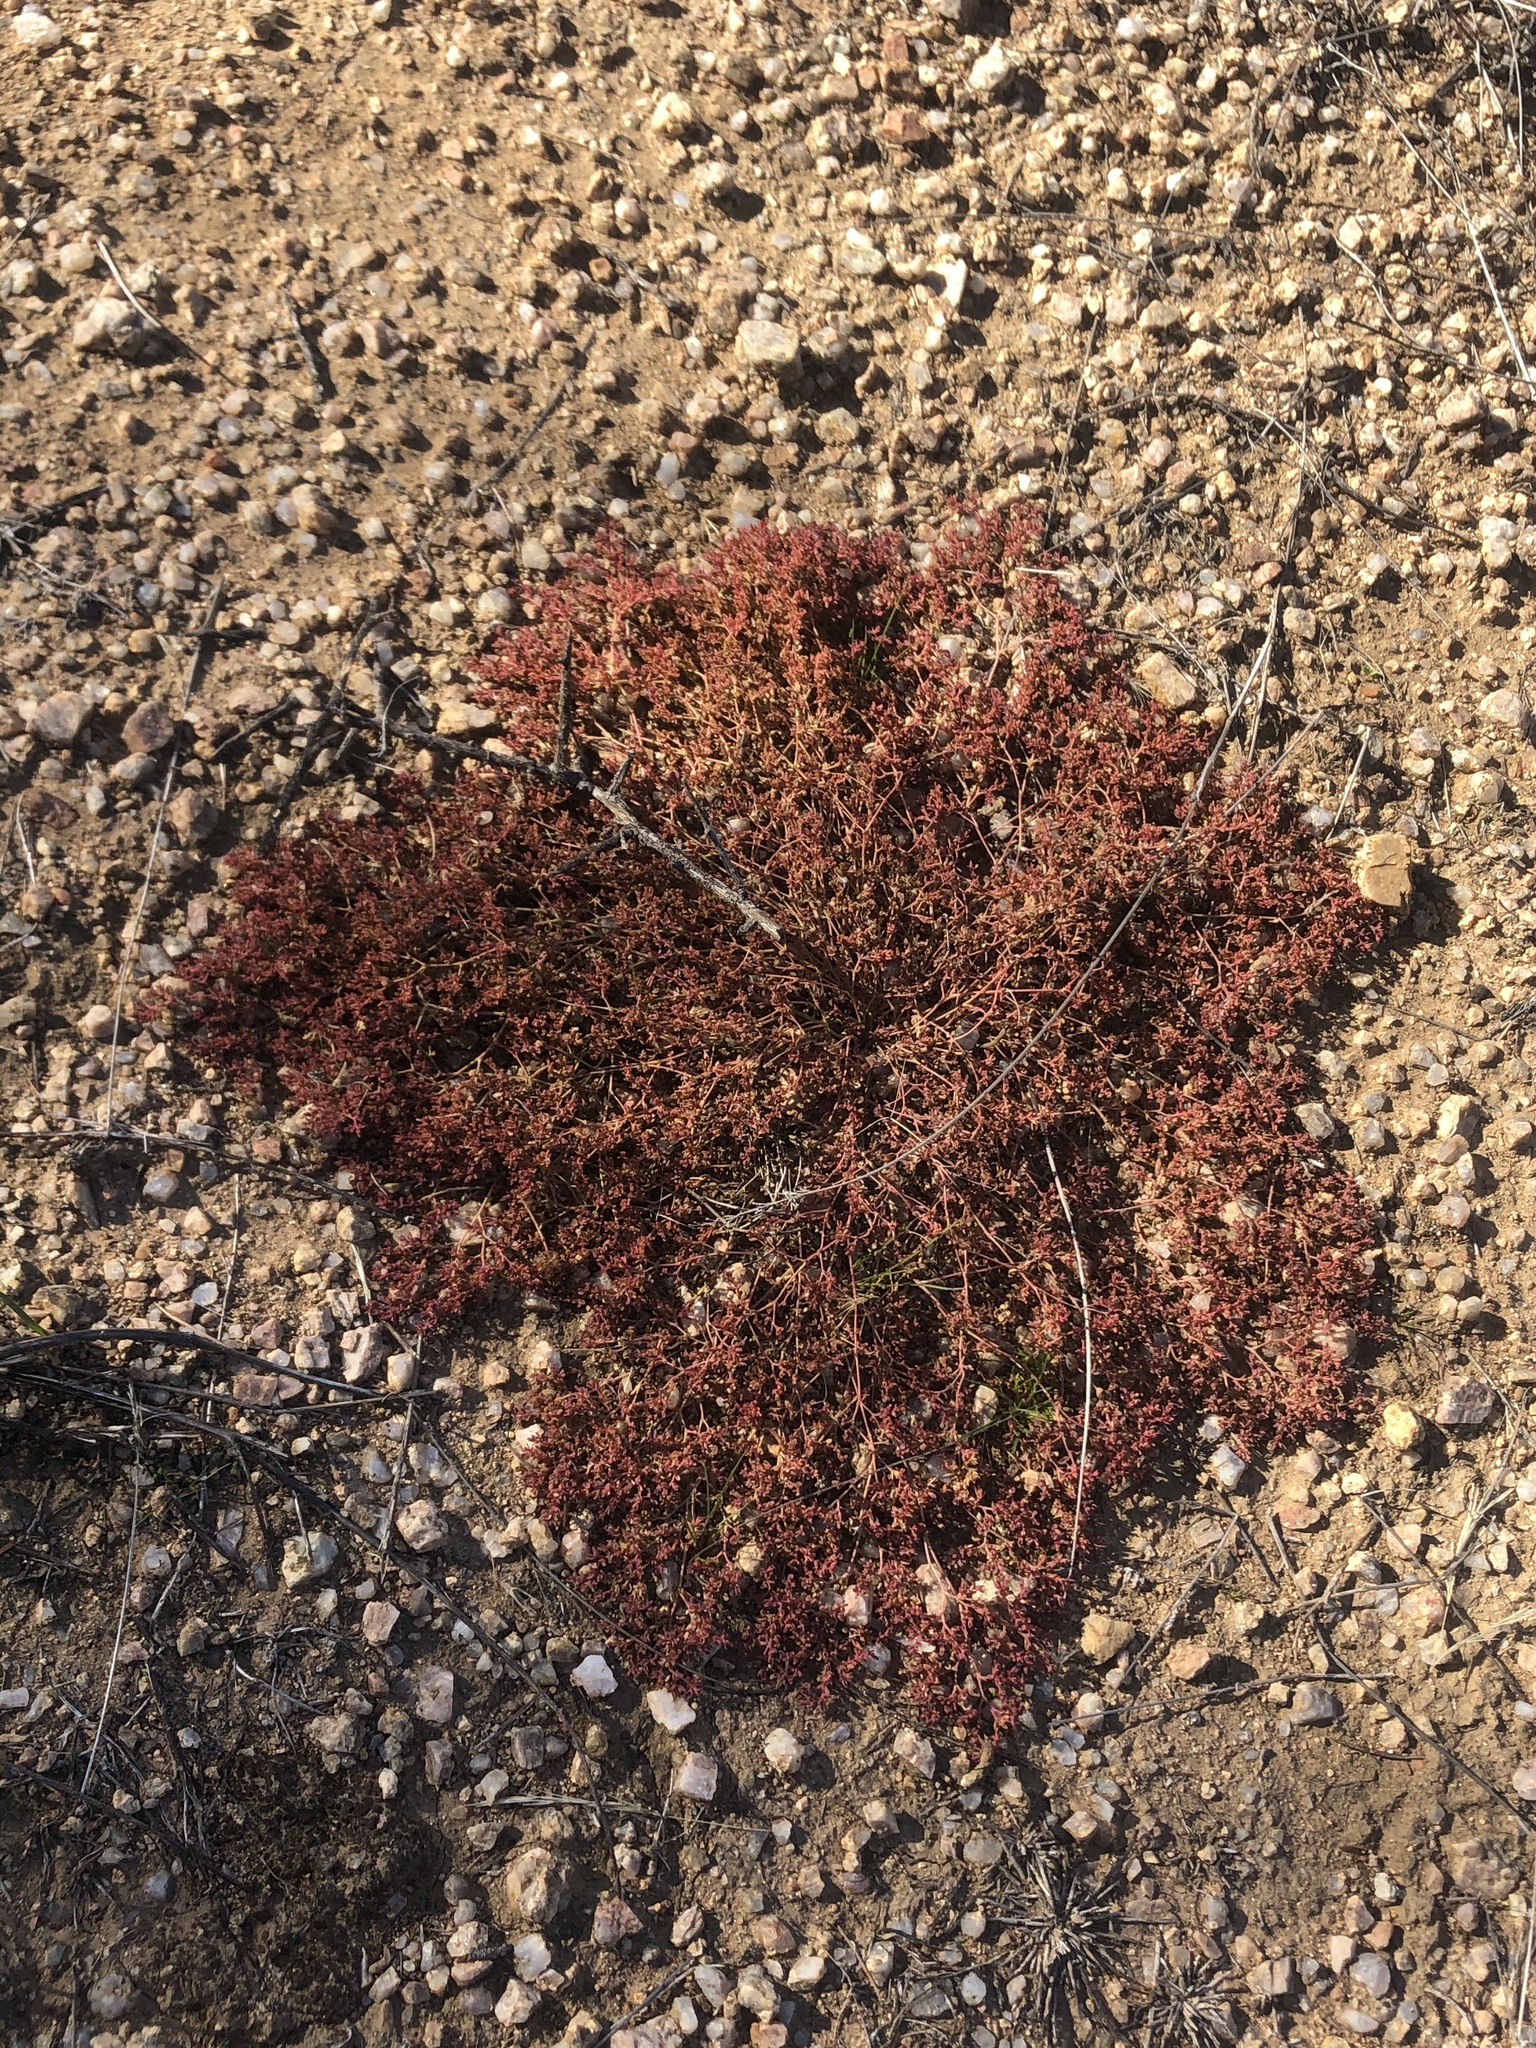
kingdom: Plantae
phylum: Tracheophyta
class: Magnoliopsida
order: Malpighiales
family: Euphorbiaceae
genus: Euphorbia
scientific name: Euphorbia polycarpa
